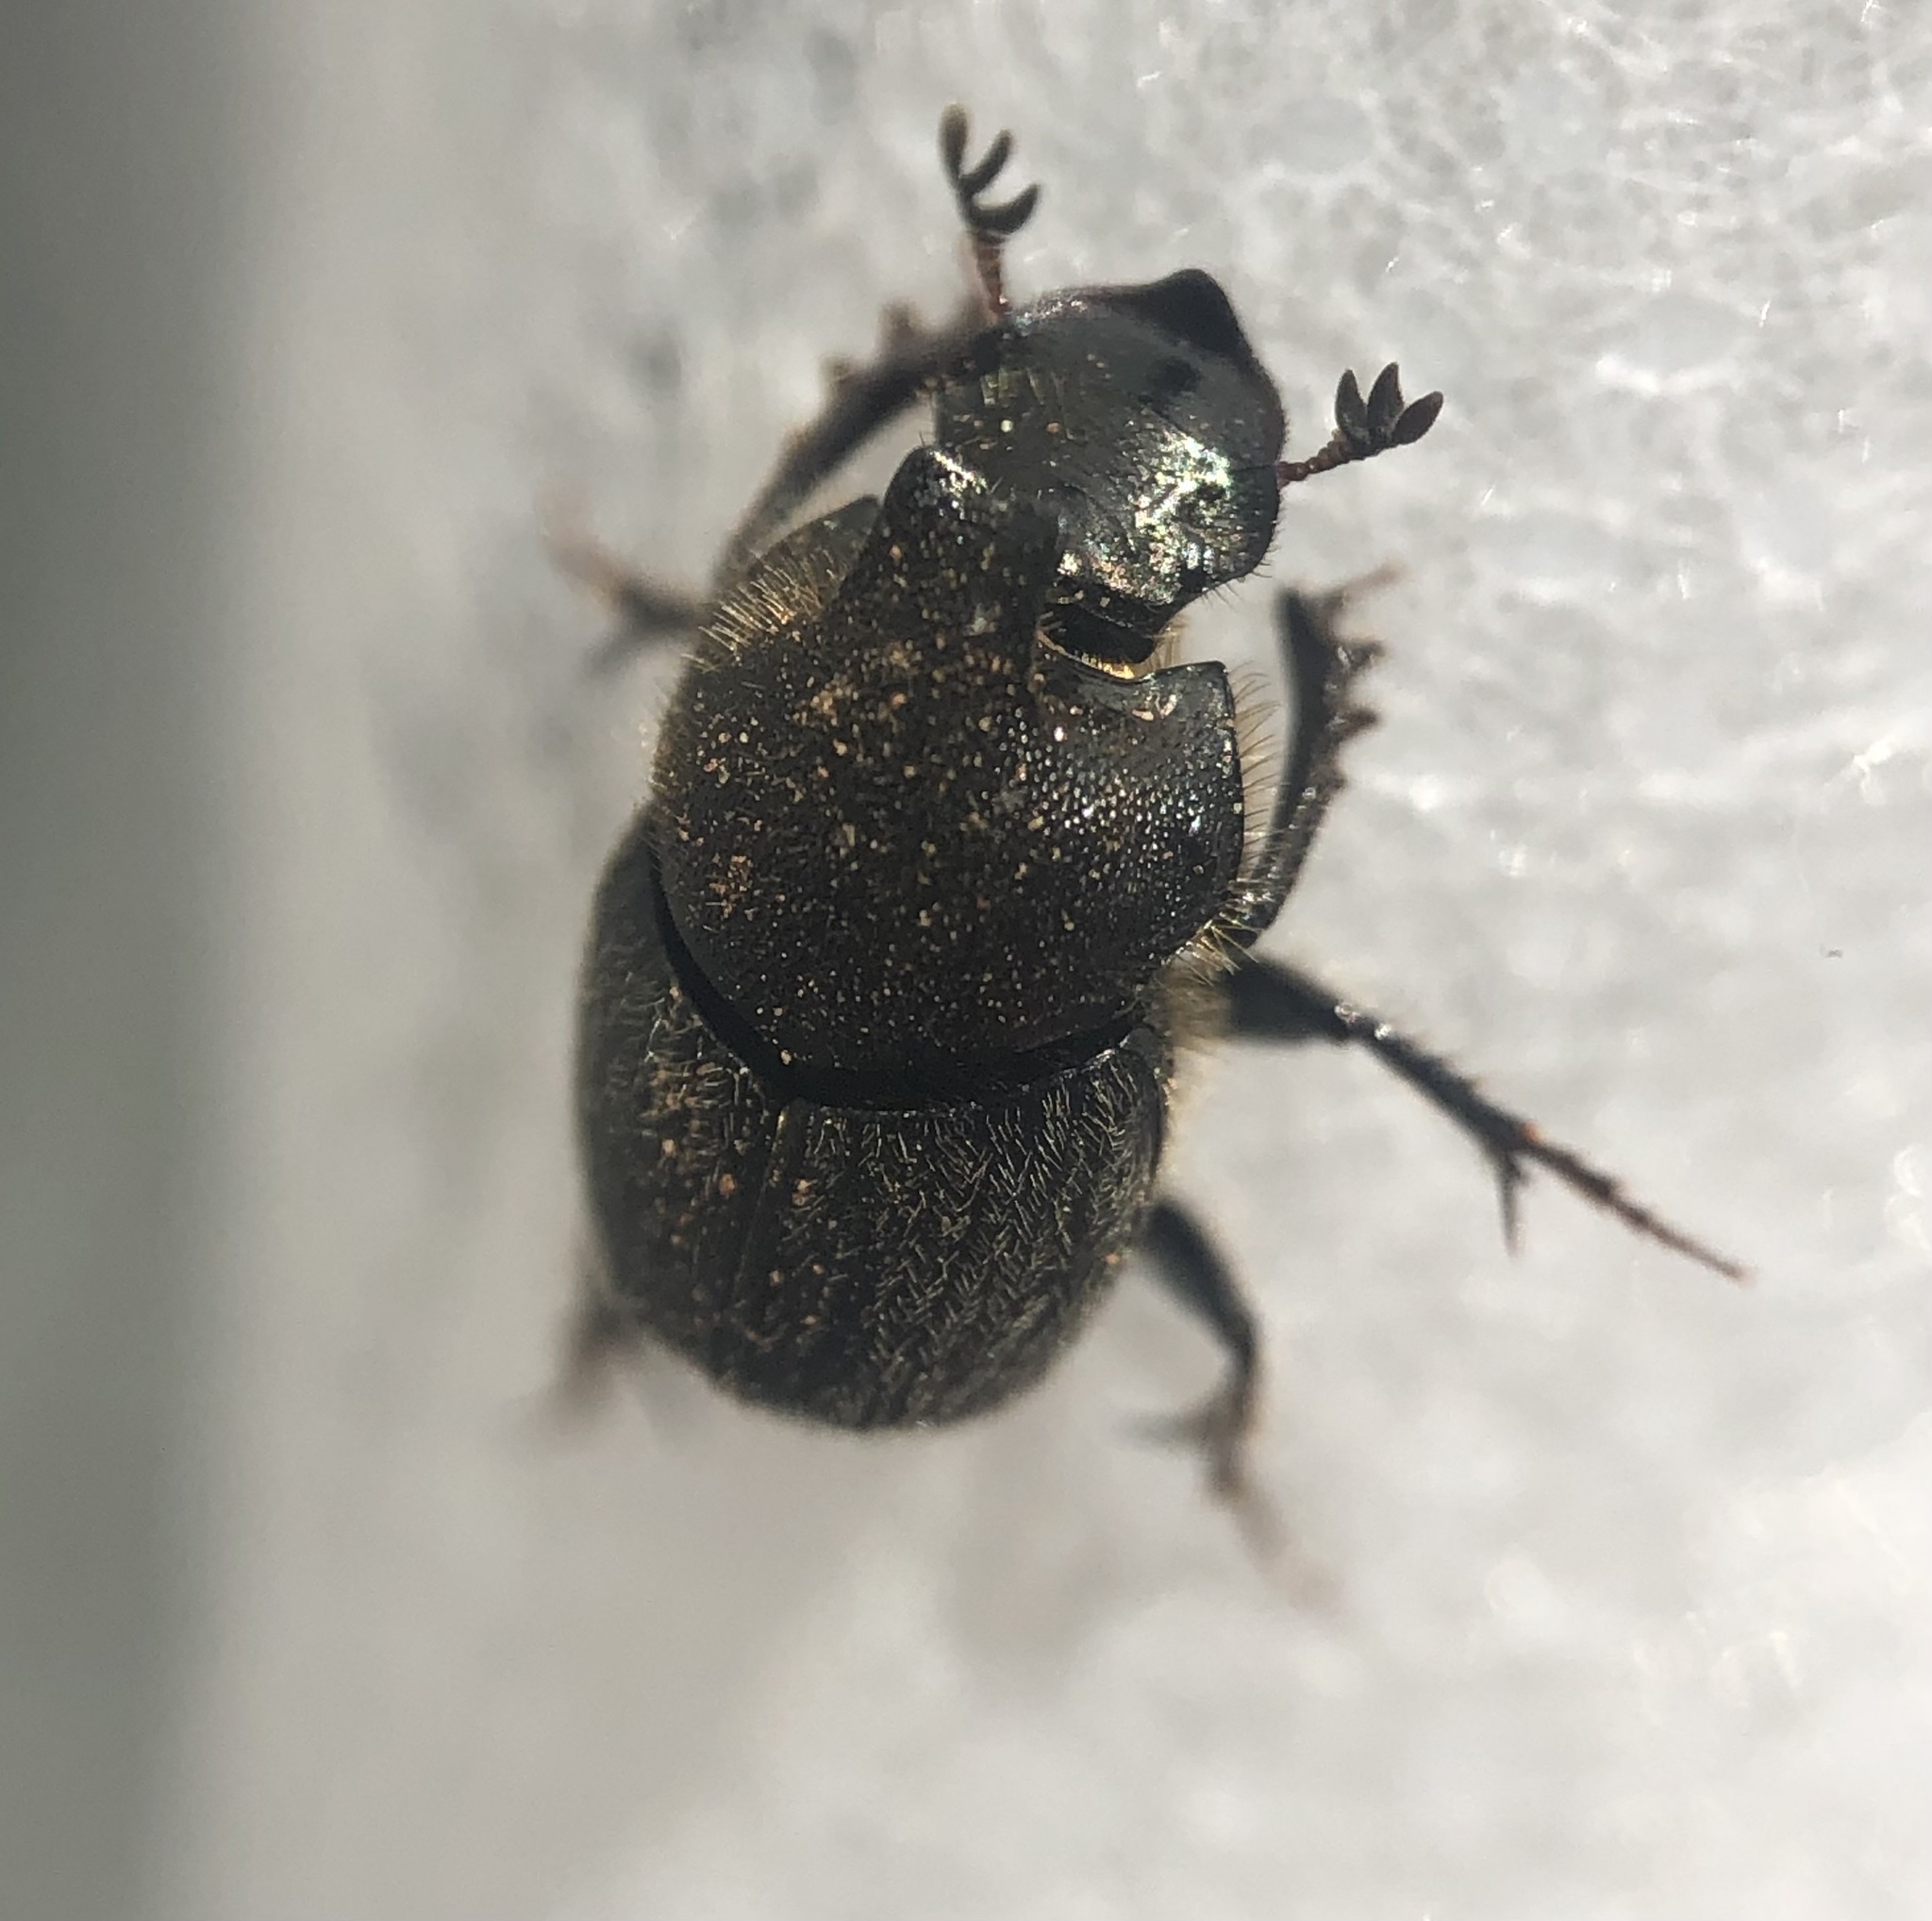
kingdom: Animalia
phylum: Arthropoda
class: Insecta
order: Coleoptera
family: Scarabaeidae
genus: Onthophagus
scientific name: Onthophagus hecate
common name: Scooped scarab
